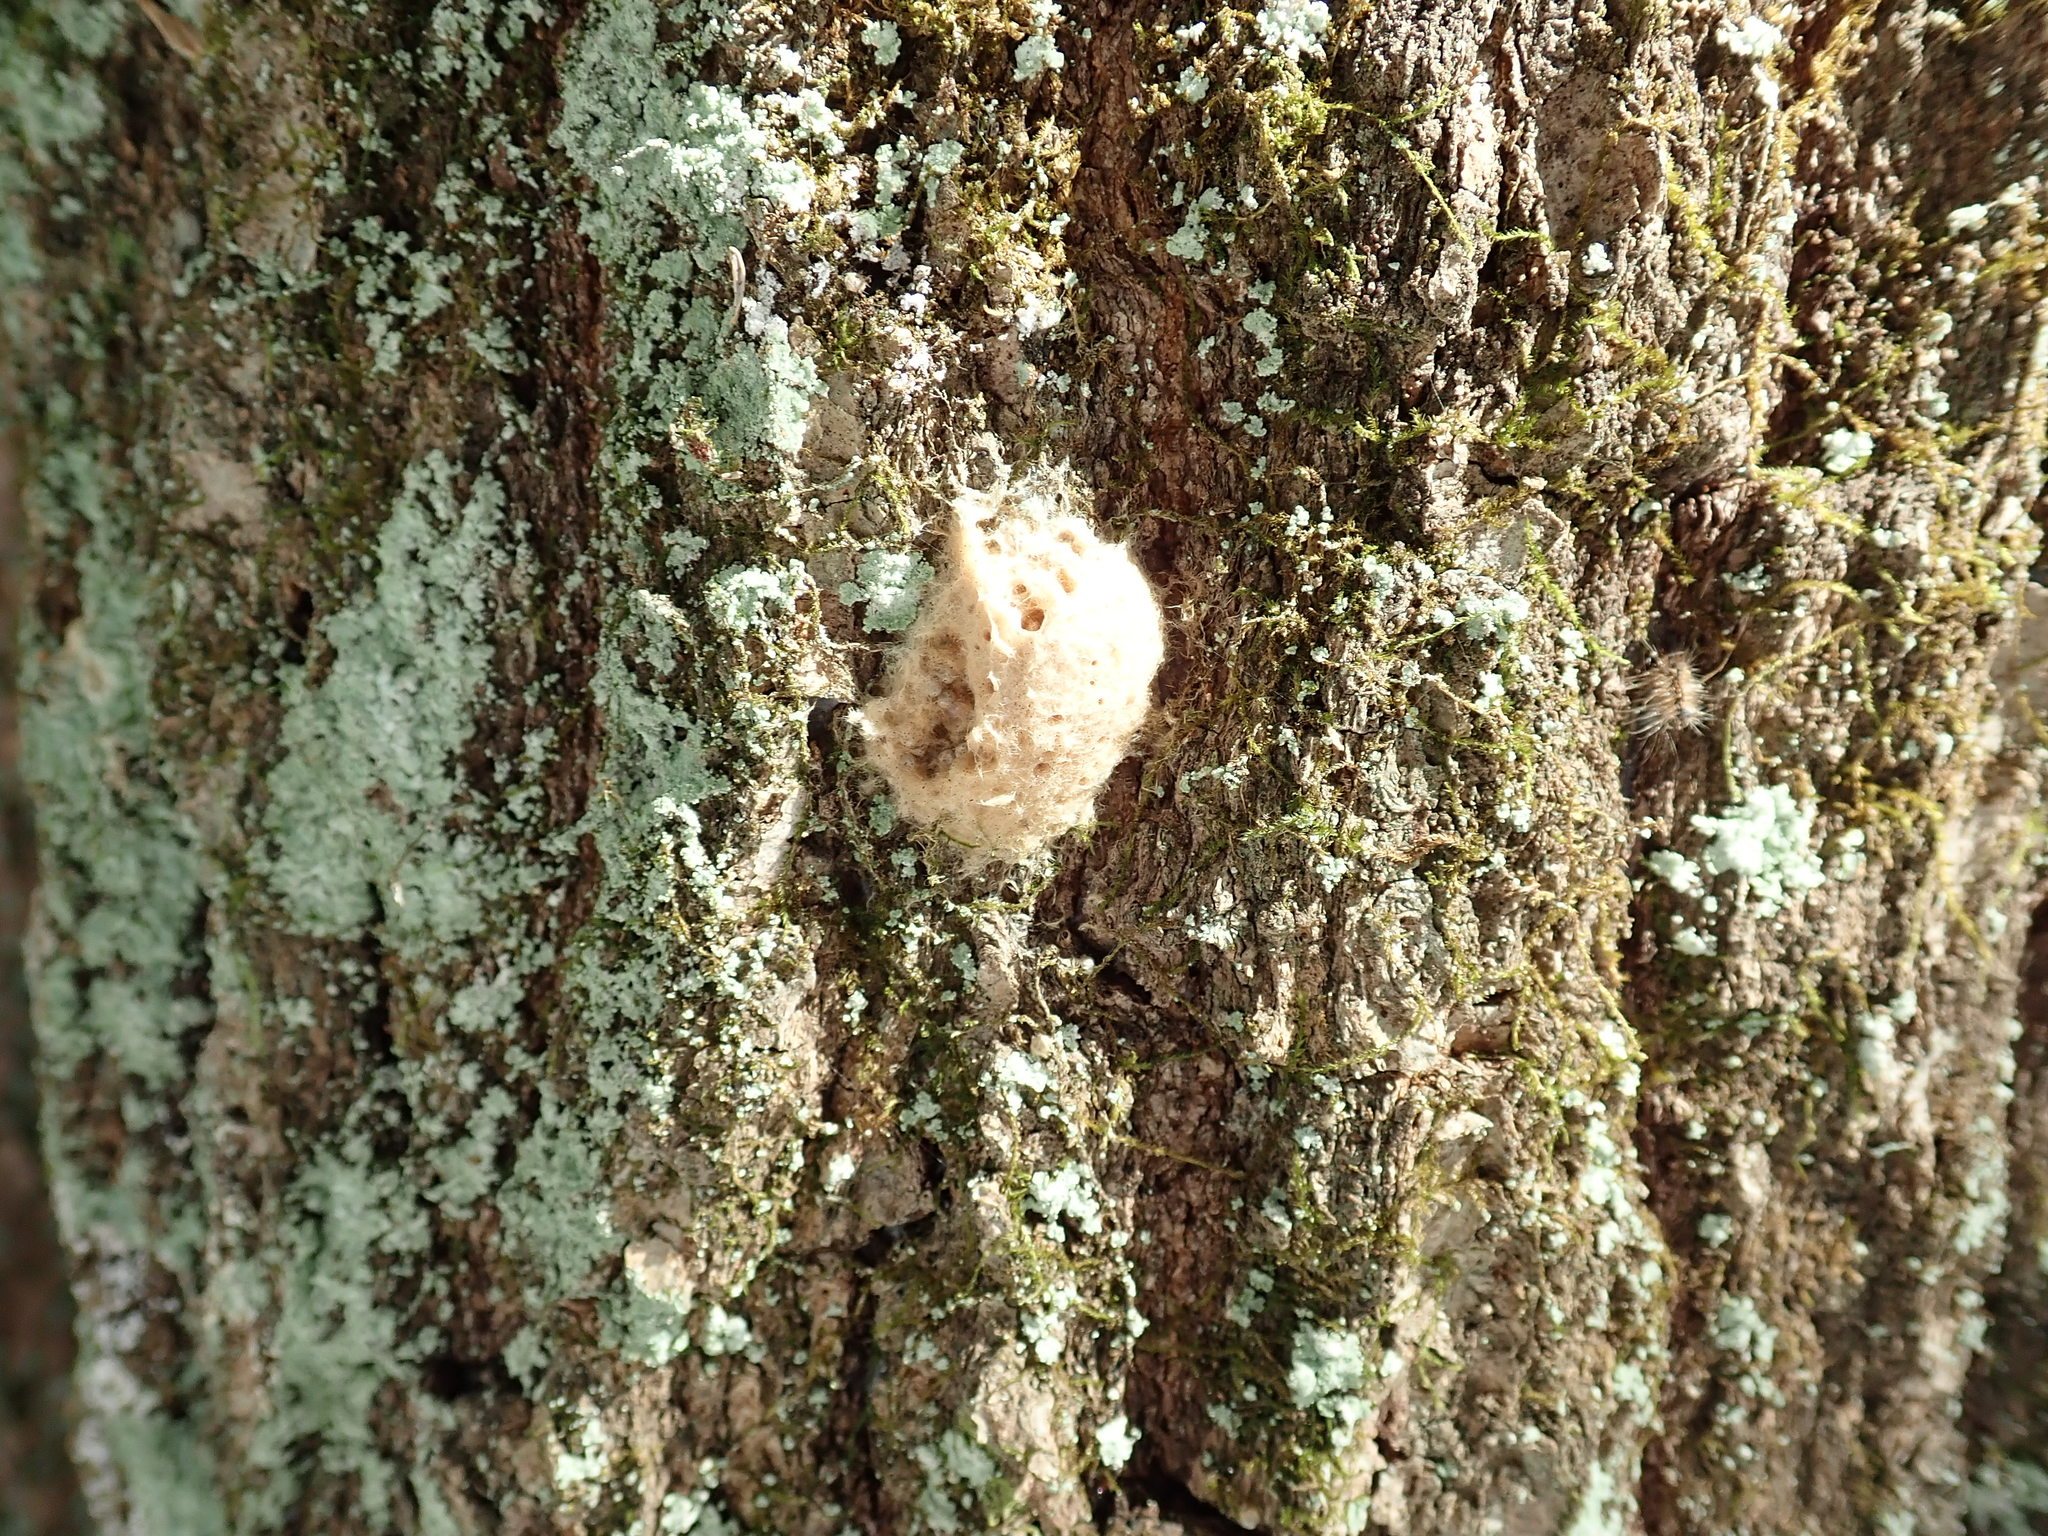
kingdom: Animalia
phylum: Arthropoda
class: Insecta
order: Lepidoptera
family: Erebidae
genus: Lymantria
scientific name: Lymantria dispar
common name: Gypsy moth
